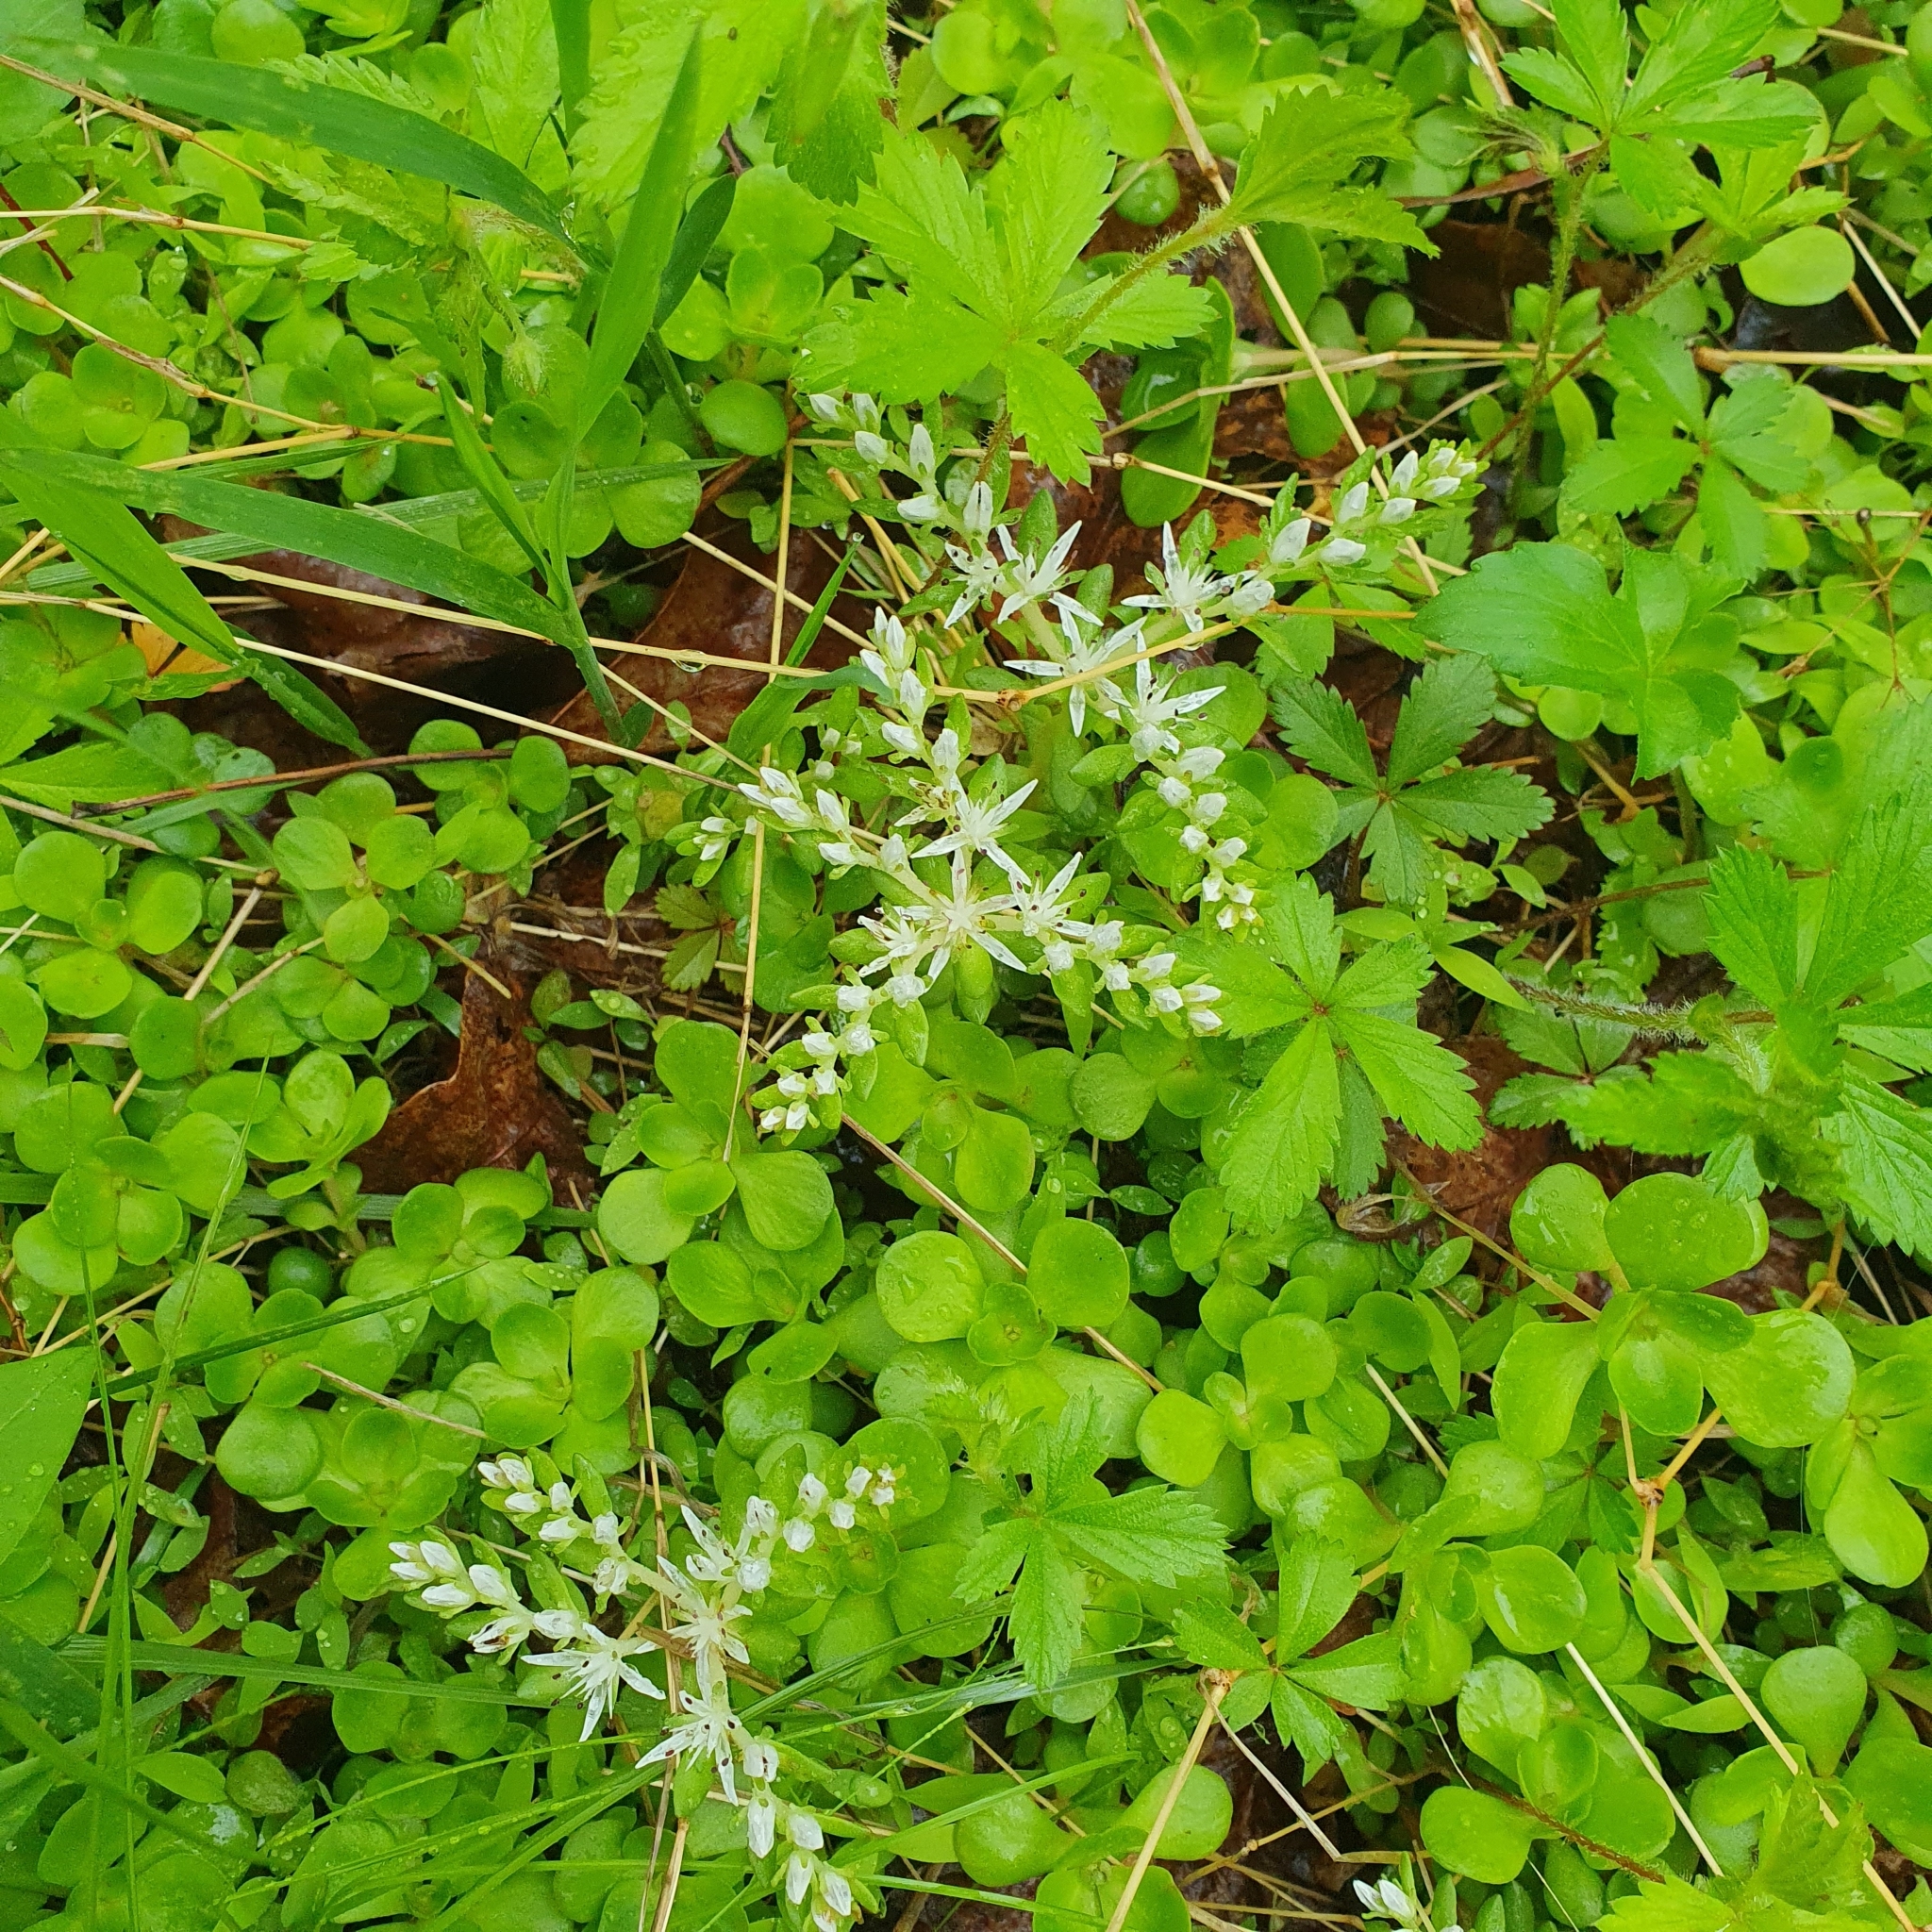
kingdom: Plantae
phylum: Tracheophyta
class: Magnoliopsida
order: Saxifragales
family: Crassulaceae
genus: Sedum
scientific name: Sedum ternatum
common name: Wild stonecrop
